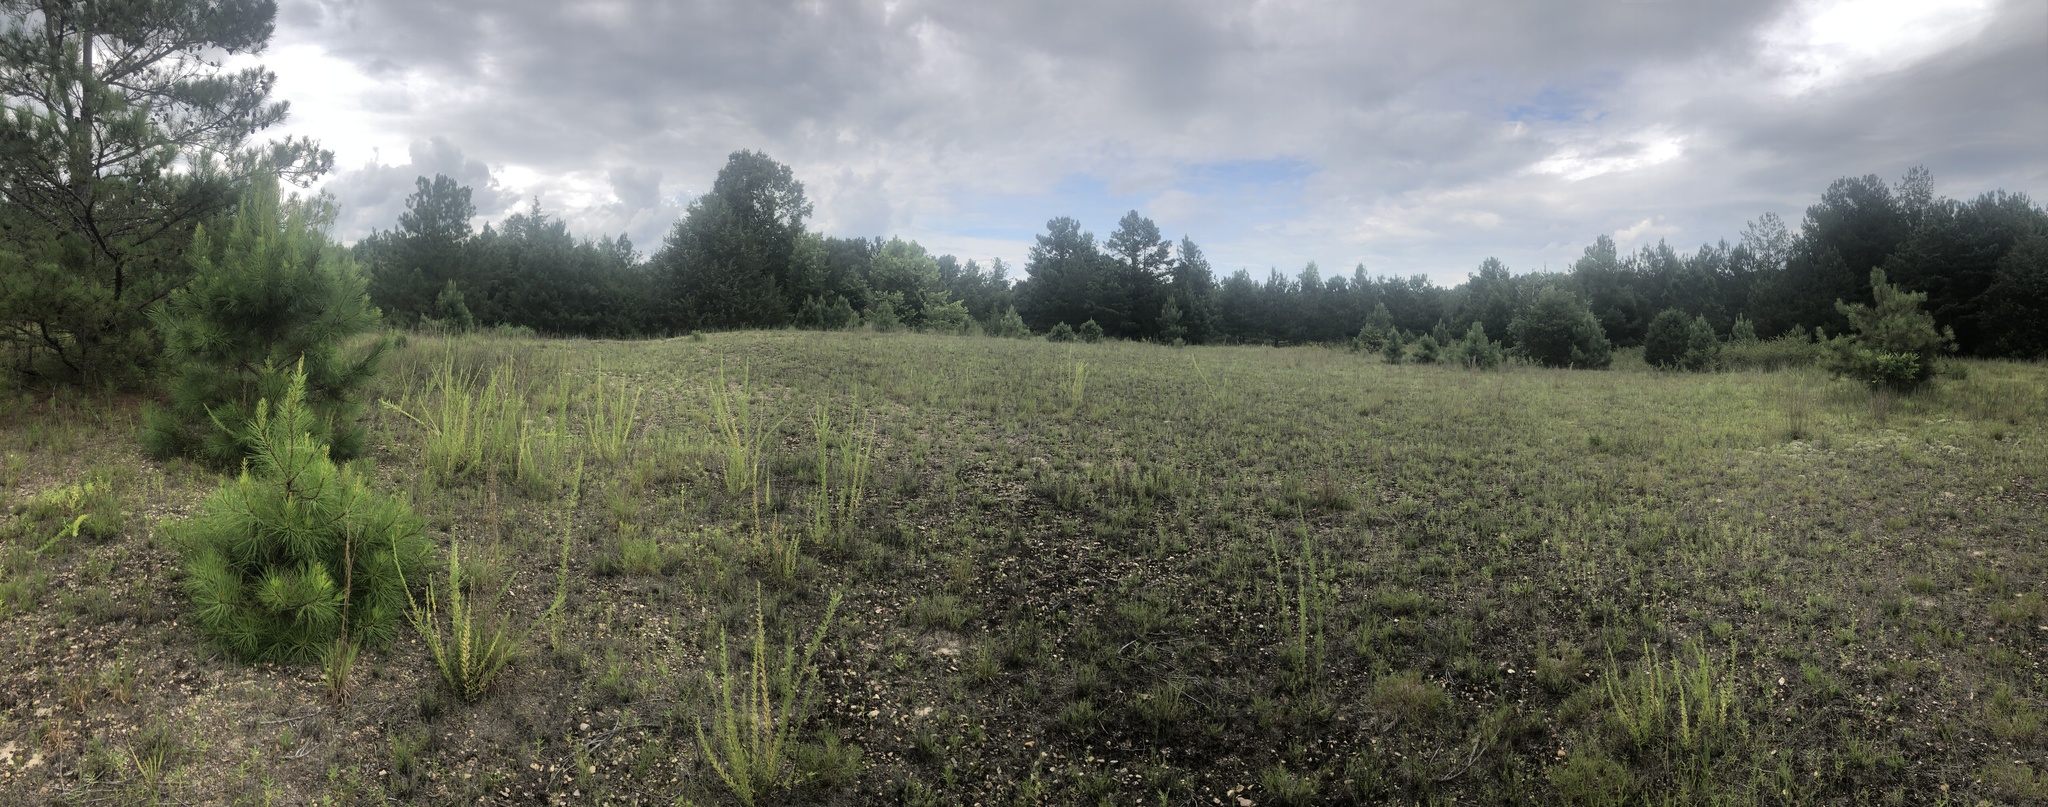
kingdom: Plantae
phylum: Tracheophyta
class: Magnoliopsida
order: Caryophyllales
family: Polygonaceae
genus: Polygonella
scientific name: Polygonella americana
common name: Southern jointweed
